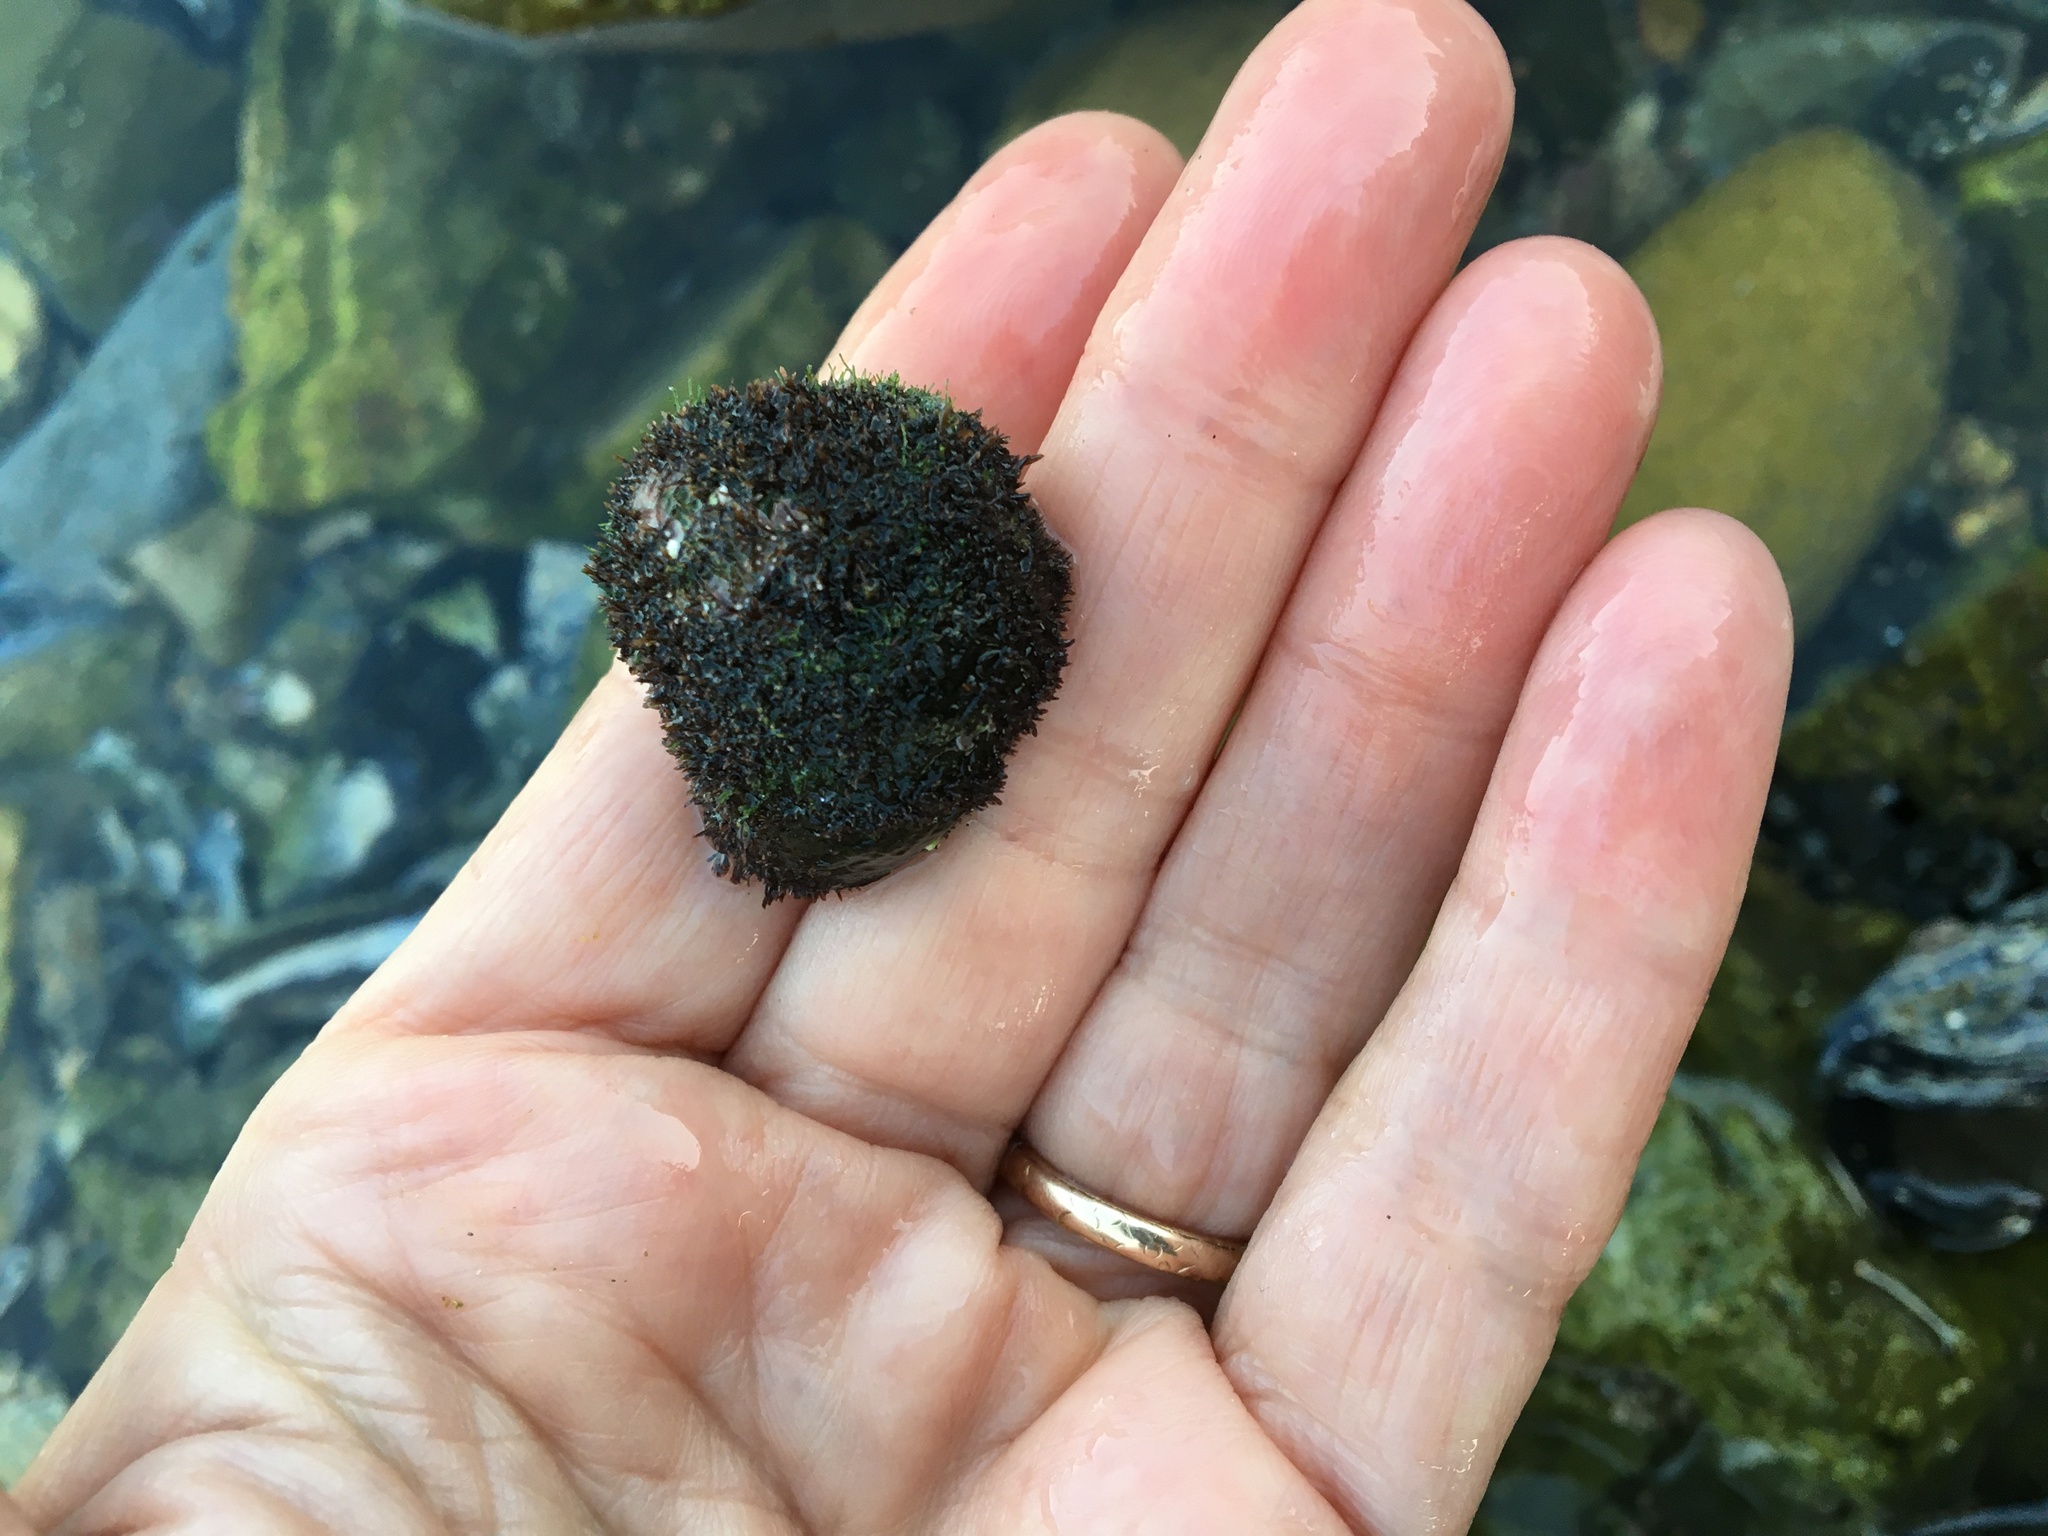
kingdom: Animalia
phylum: Mollusca
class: Gastropoda
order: Trochida
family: Tegulidae
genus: Tegula
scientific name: Tegula funebralis
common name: Black tegula
